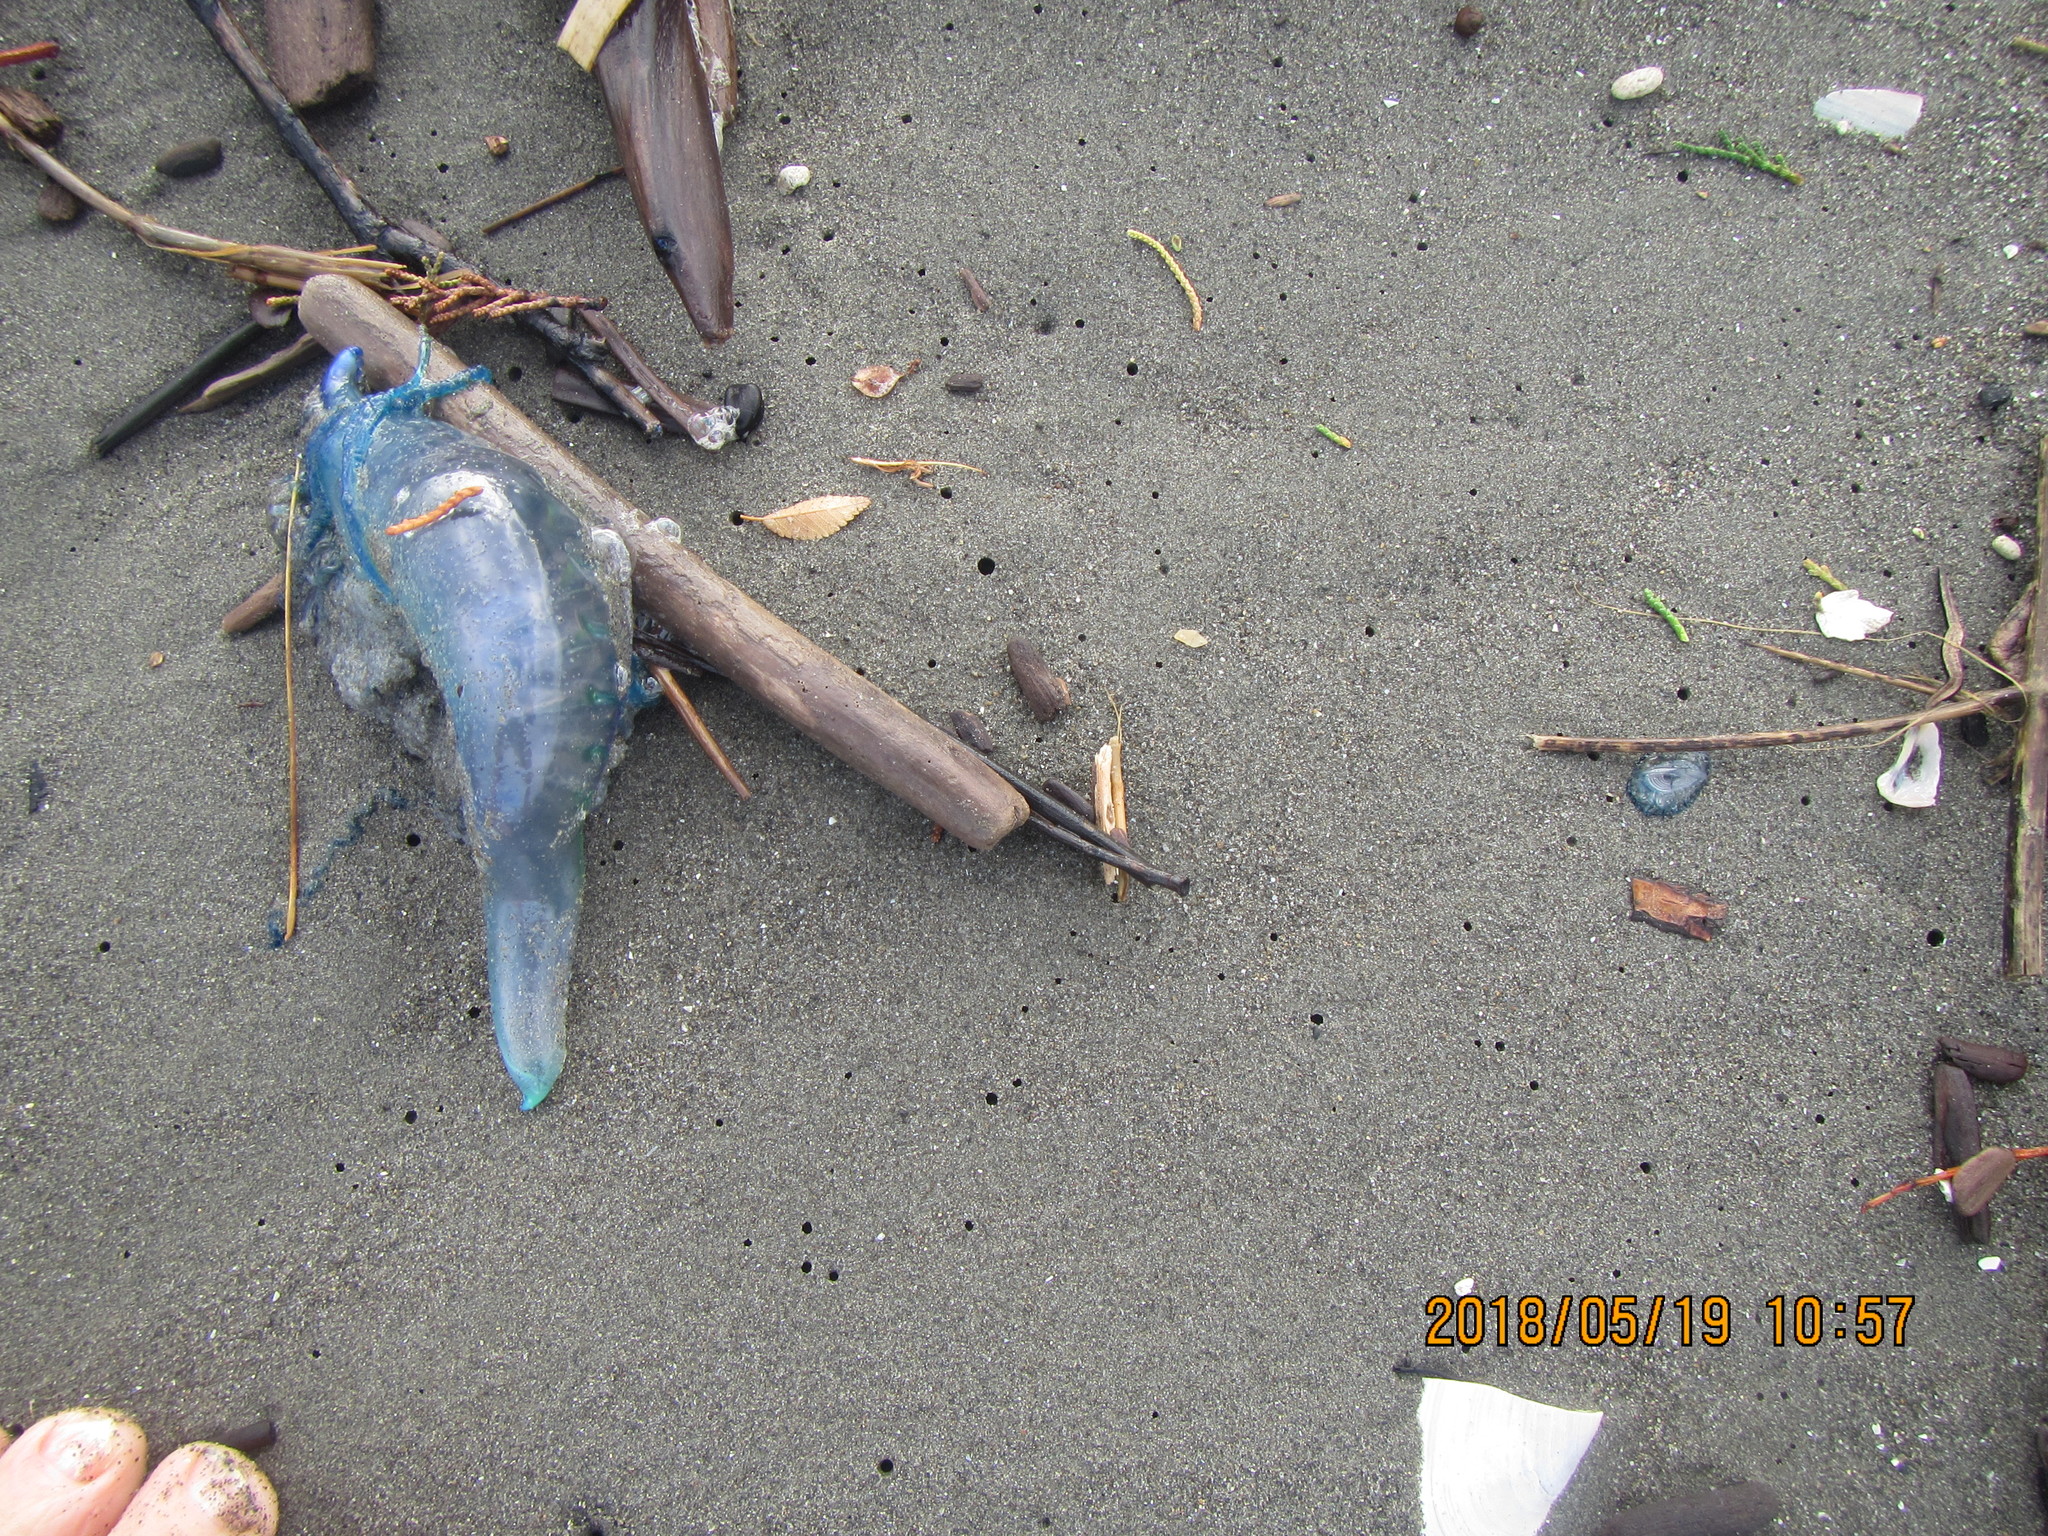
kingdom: Animalia
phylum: Cnidaria
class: Hydrozoa
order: Anthoathecata
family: Porpitidae
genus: Velella
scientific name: Velella velella
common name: By-the-wind-sailor
